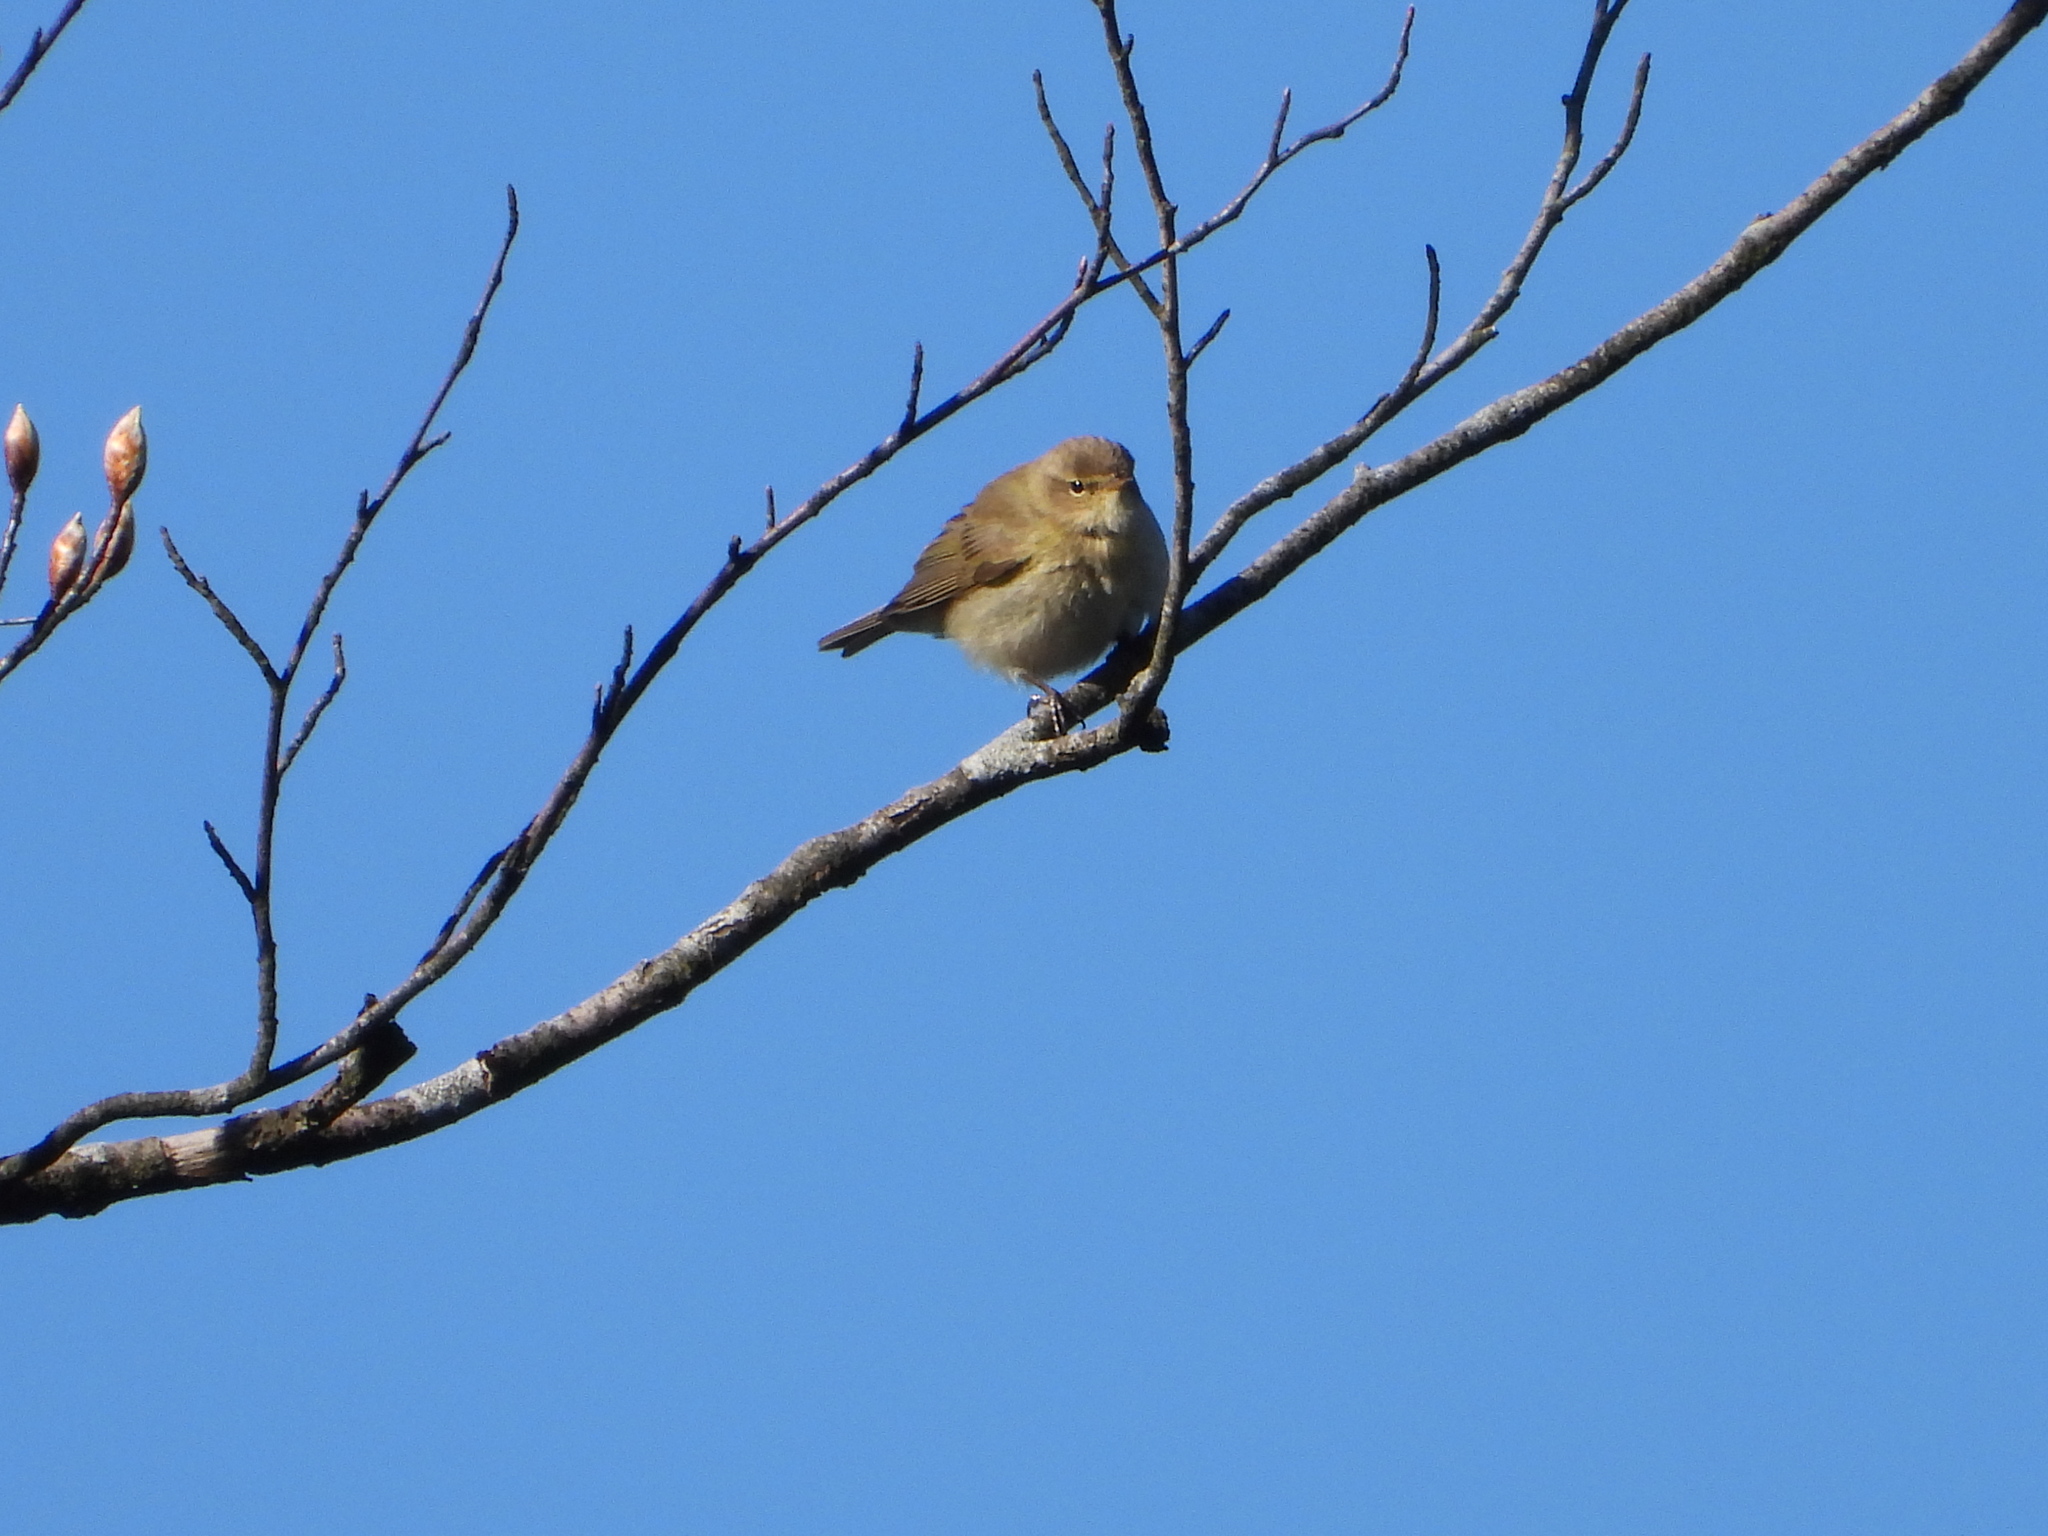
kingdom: Animalia
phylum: Chordata
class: Aves
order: Passeriformes
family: Phylloscopidae
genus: Phylloscopus
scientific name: Phylloscopus collybita
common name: Common chiffchaff
